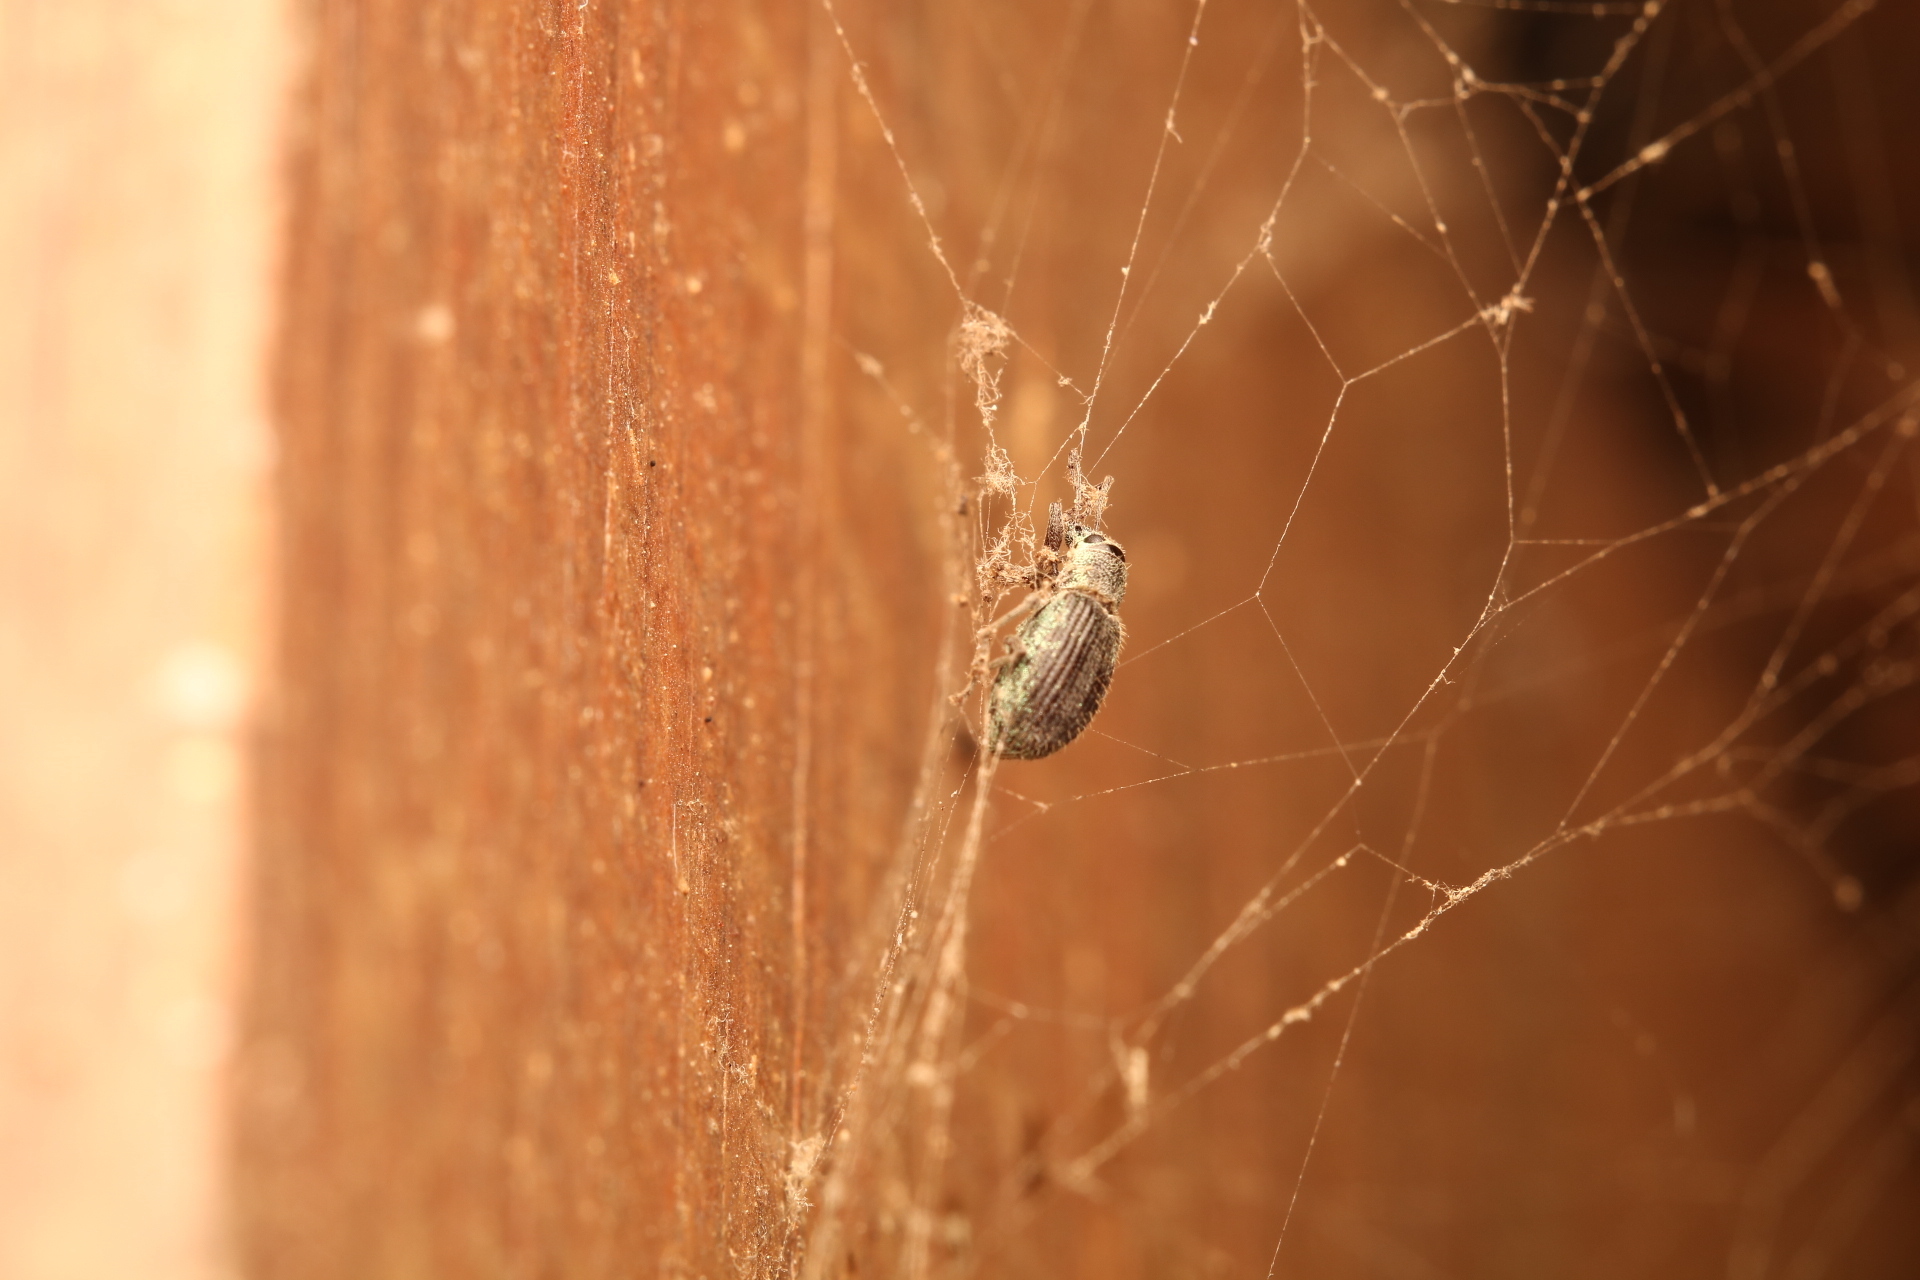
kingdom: Animalia
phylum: Arthropoda
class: Insecta
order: Coleoptera
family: Curculionidae
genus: Cyrtepistomus
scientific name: Cyrtepistomus castaneus
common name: Weevil
